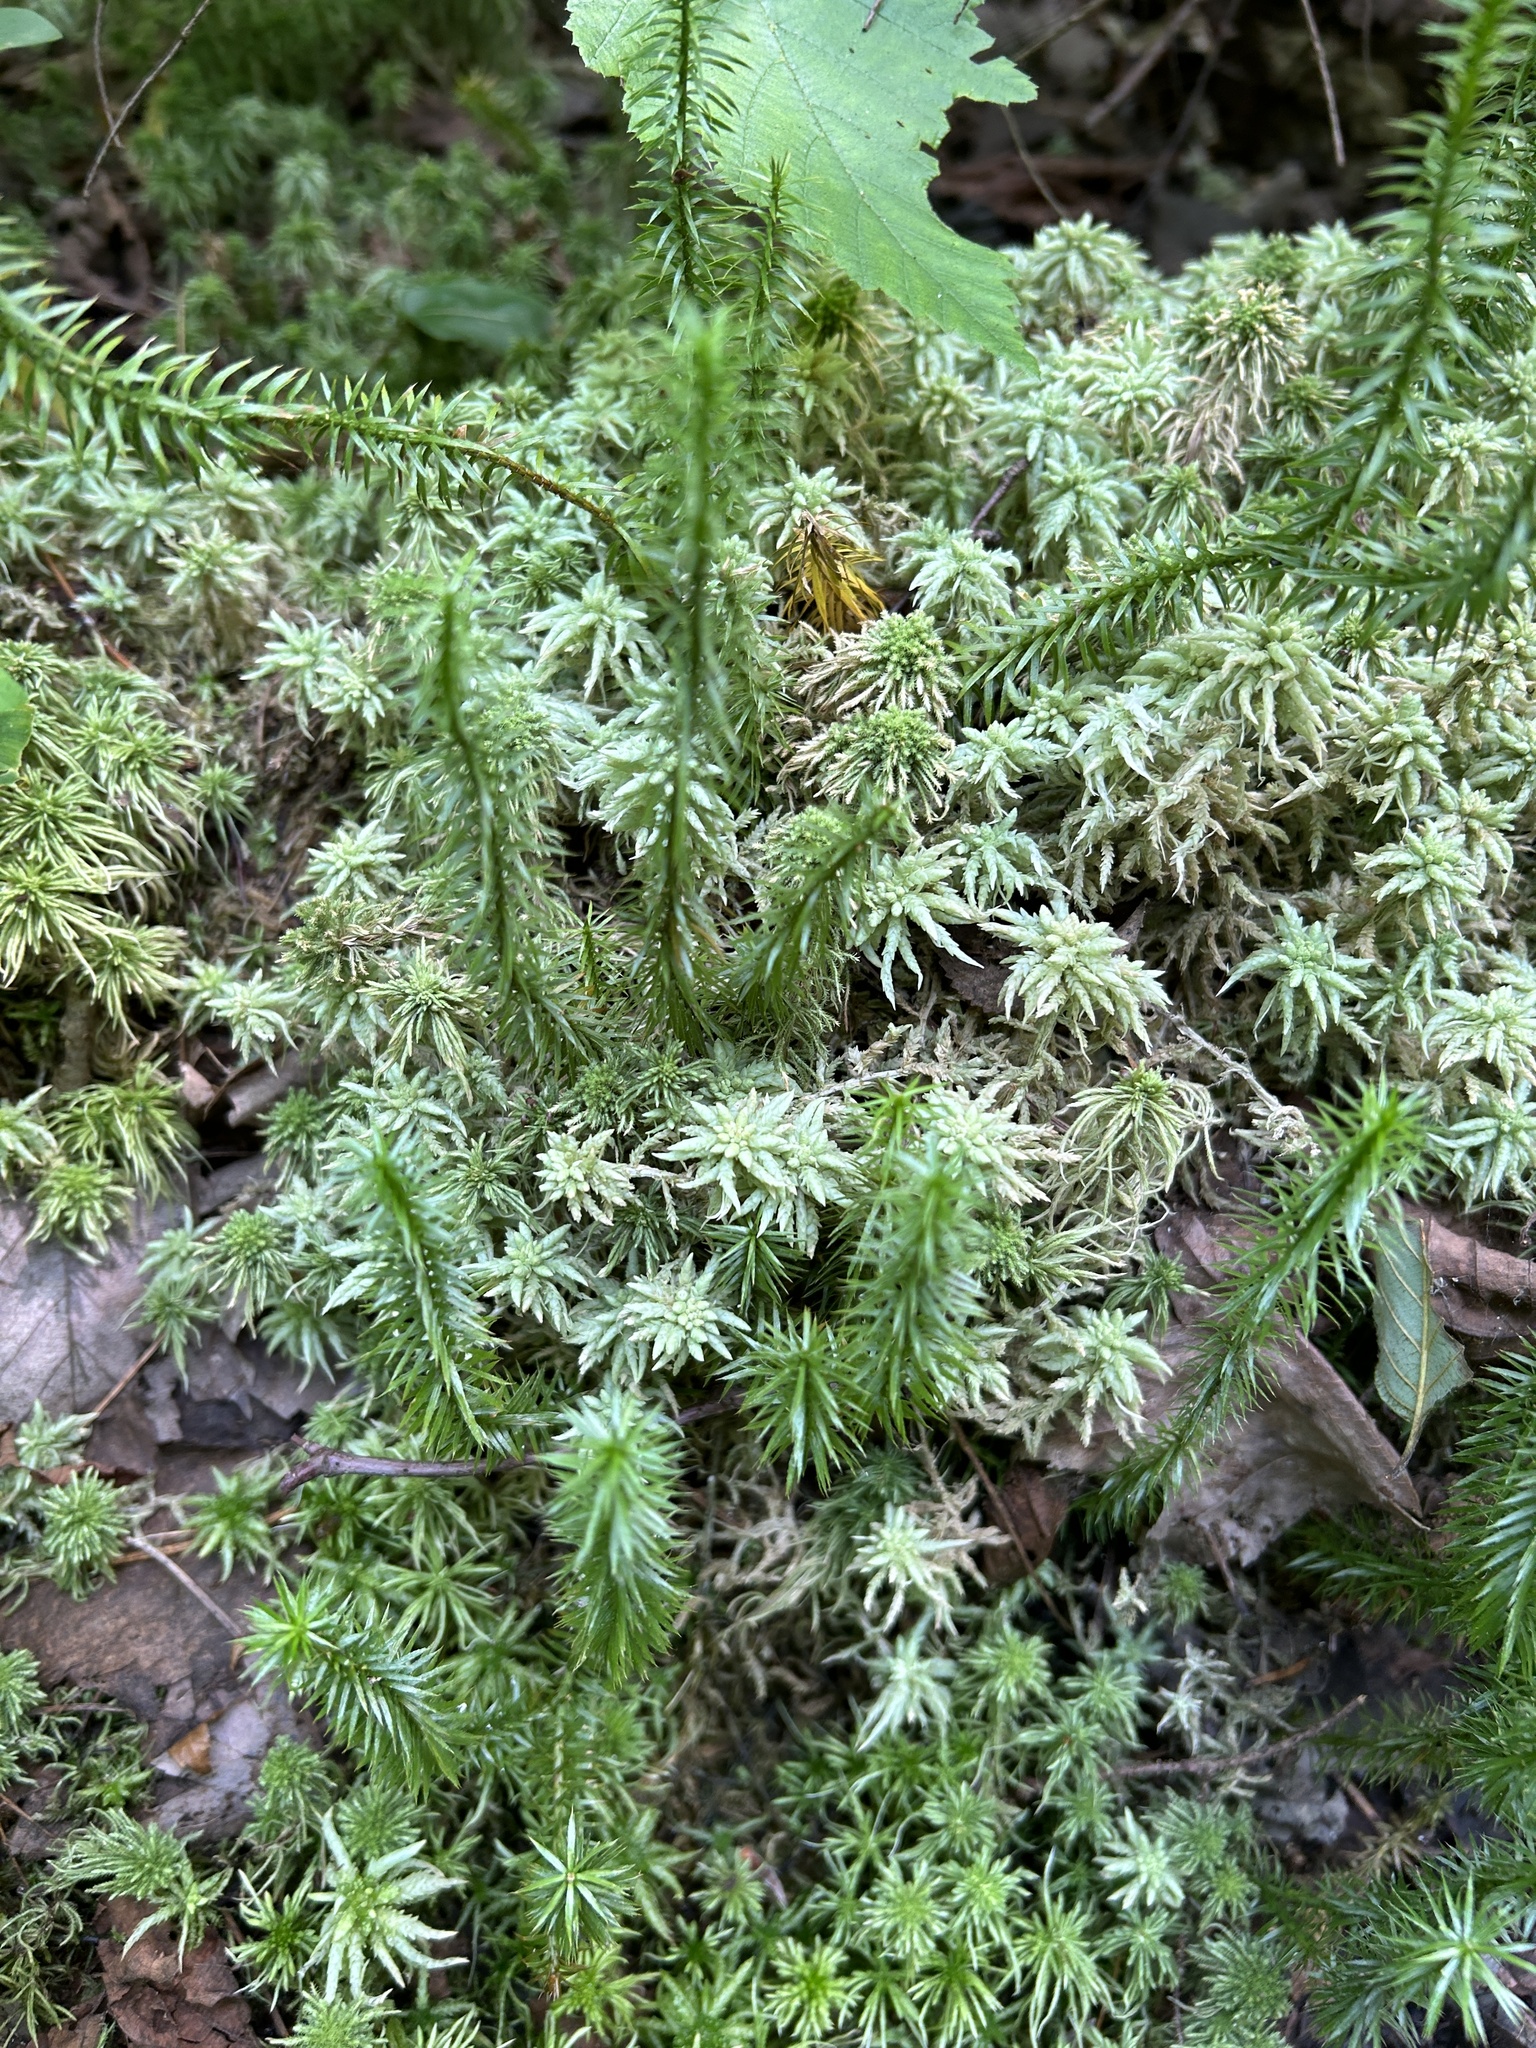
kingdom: Plantae
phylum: Tracheophyta
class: Lycopodiopsida
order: Lycopodiales
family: Lycopodiaceae
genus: Spinulum
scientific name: Spinulum annotinum
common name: Interrupted club-moss
